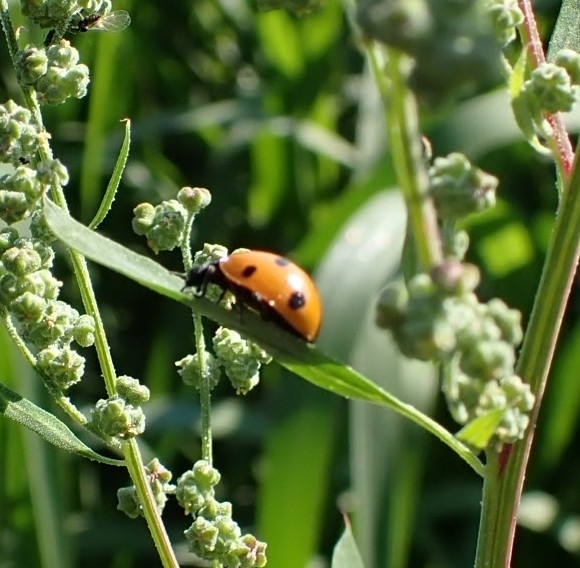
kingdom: Animalia
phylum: Arthropoda
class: Insecta
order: Coleoptera
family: Coccinellidae
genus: Coccinella
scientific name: Coccinella septempunctata
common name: Sevenspotted lady beetle
